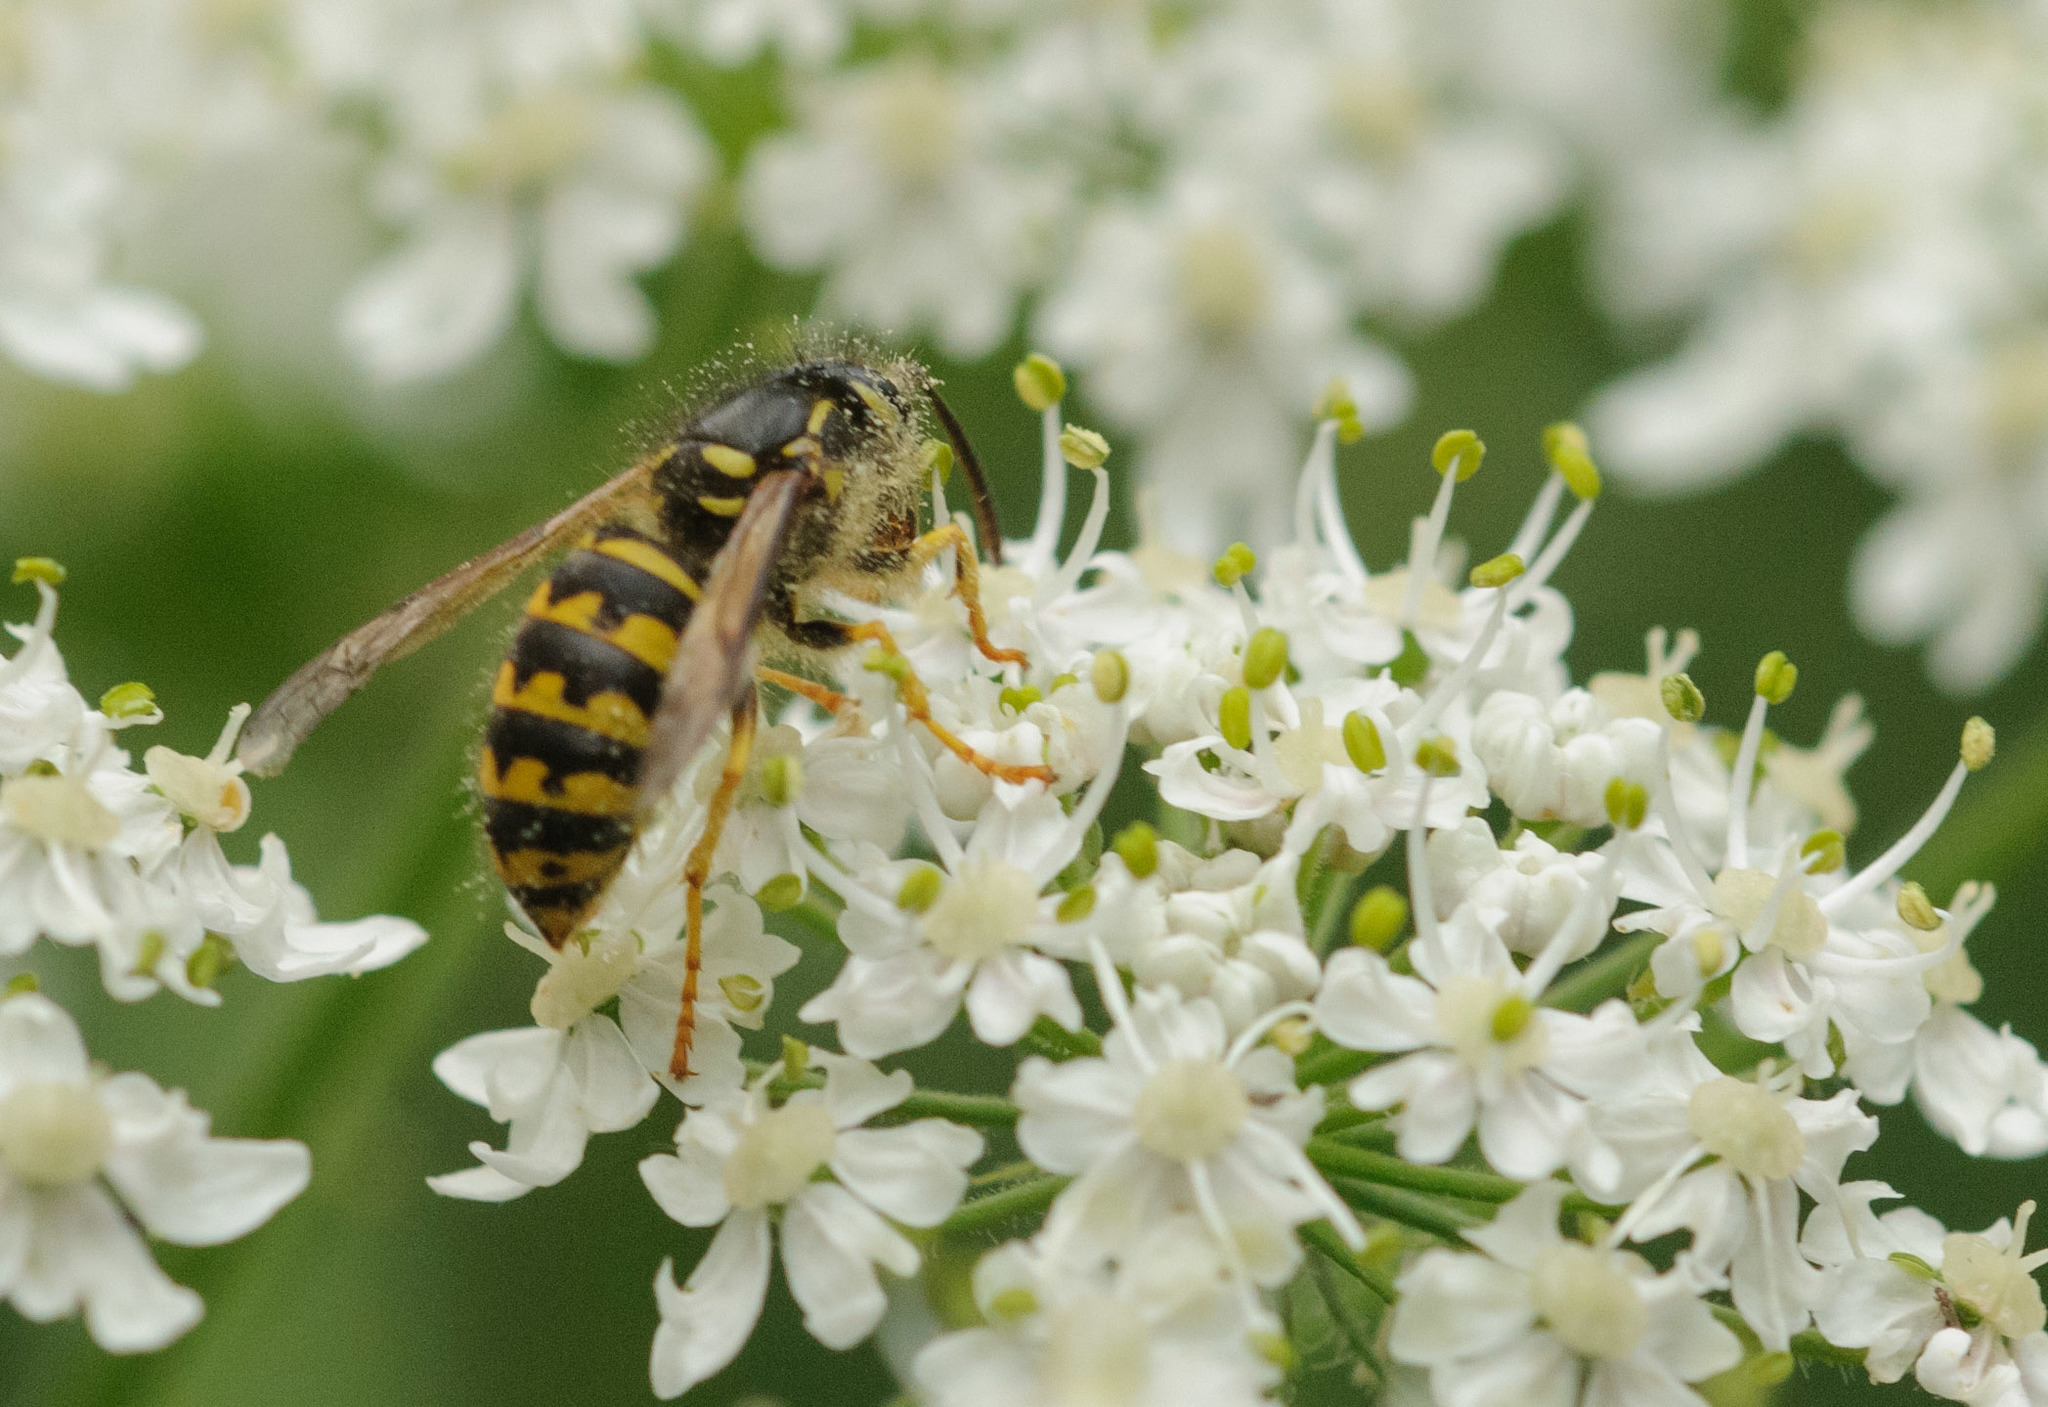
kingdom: Animalia
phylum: Arthropoda
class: Insecta
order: Hymenoptera
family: Vespidae
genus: Dolichovespula
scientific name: Dolichovespula arenaria
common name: Aerial yellowjacket
